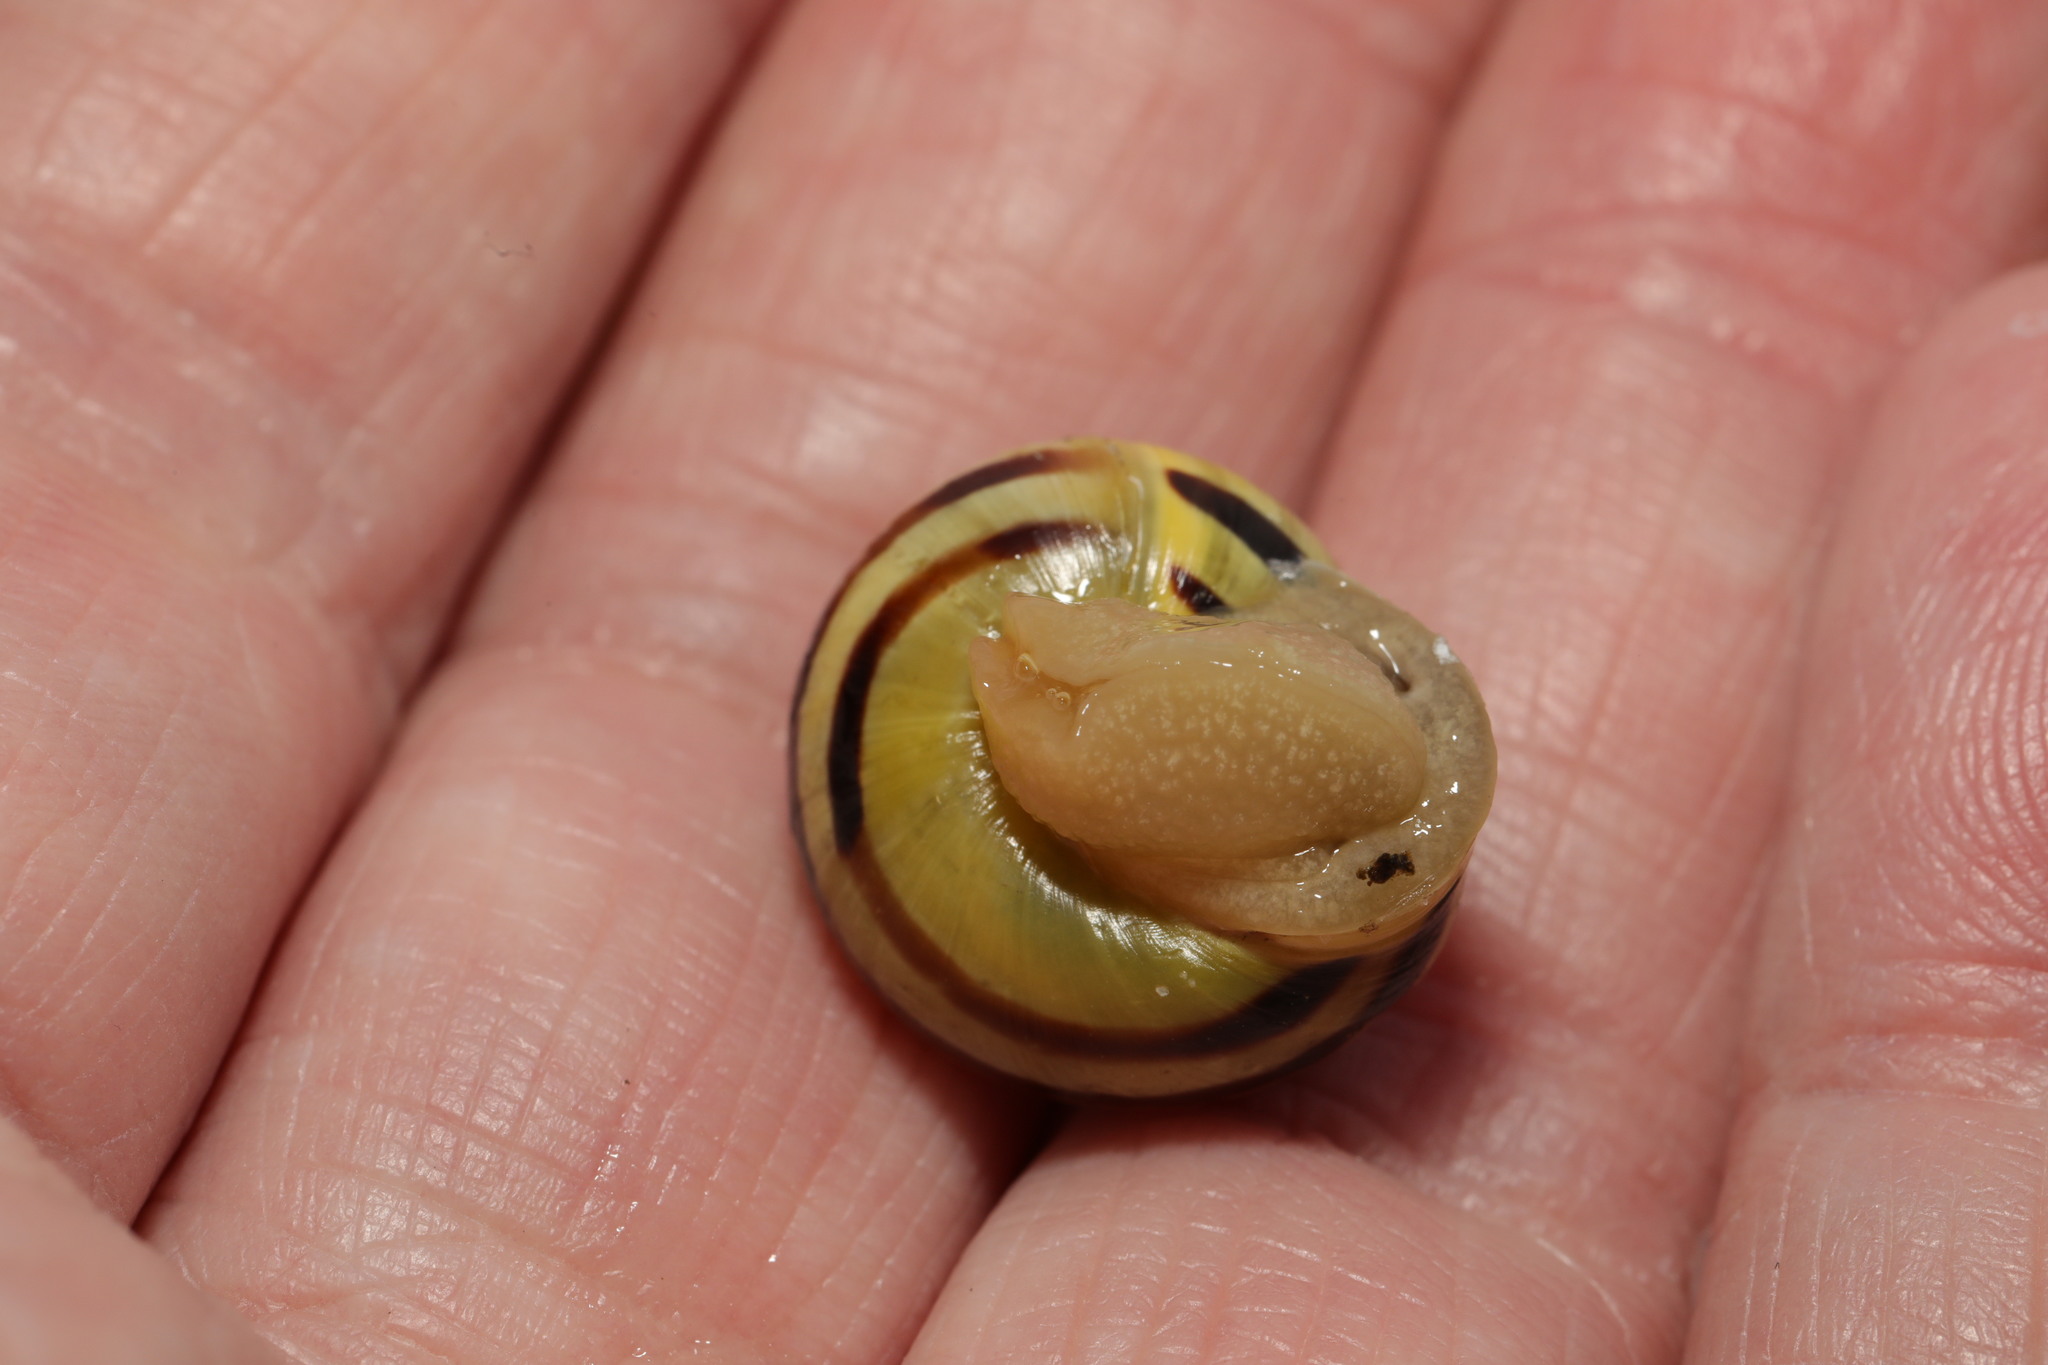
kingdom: Animalia
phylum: Mollusca
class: Gastropoda
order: Stylommatophora
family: Helicidae
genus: Cepaea
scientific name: Cepaea hortensis
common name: White-lip gardensnail
